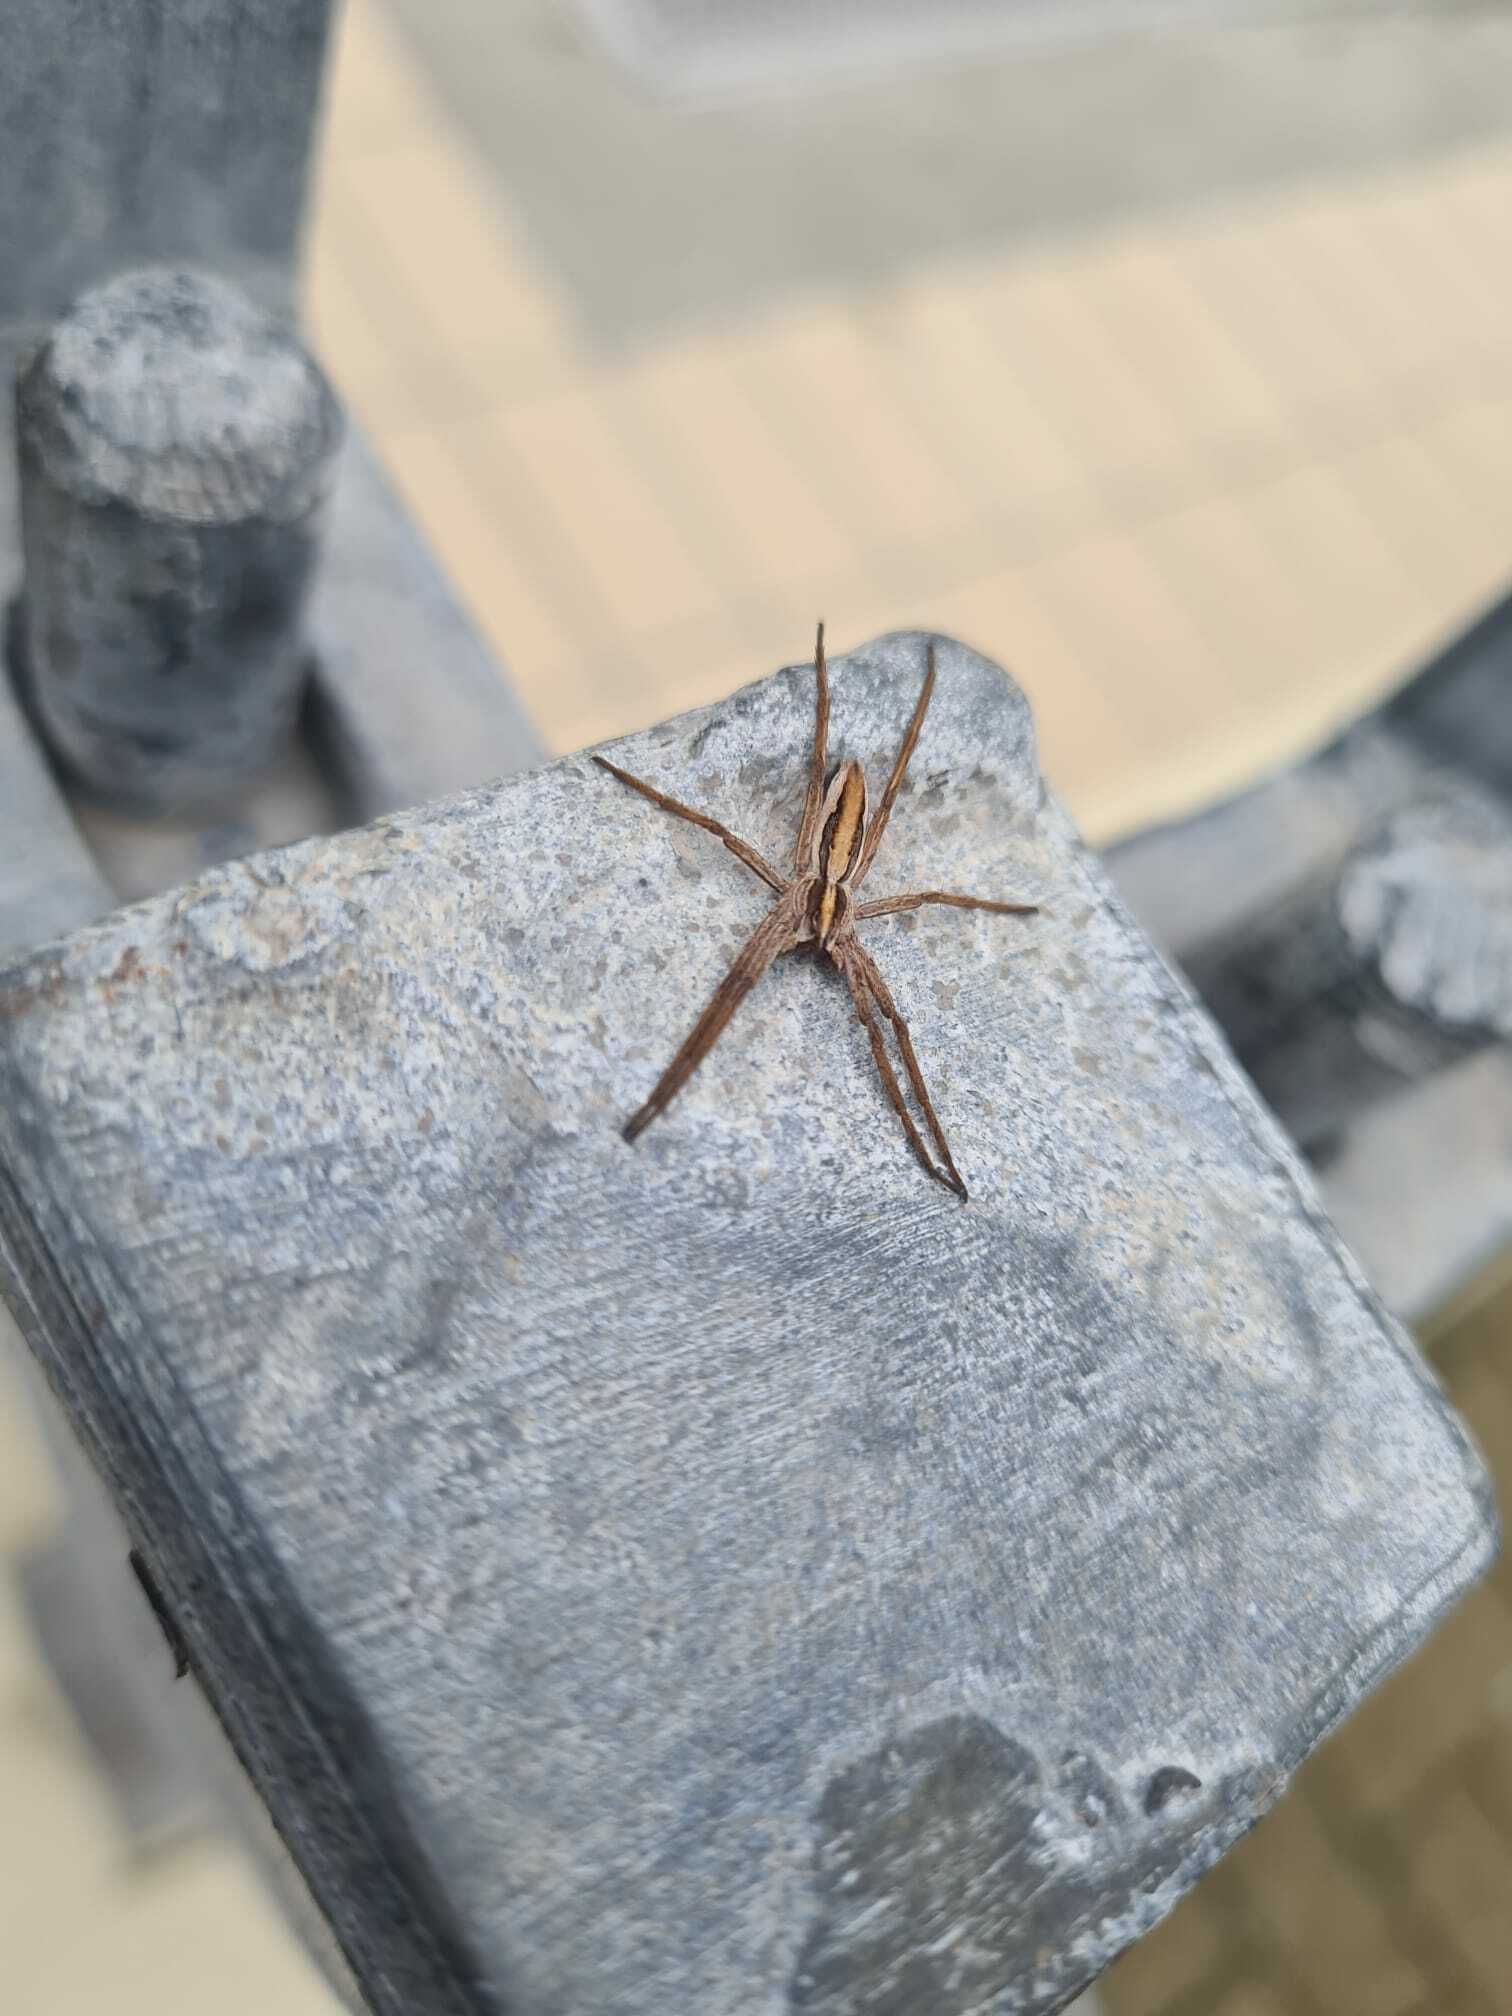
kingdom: Animalia
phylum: Arthropoda
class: Arachnida
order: Araneae
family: Pisauridae
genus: Pisaura
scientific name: Pisaura mirabilis
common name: Tent spider
